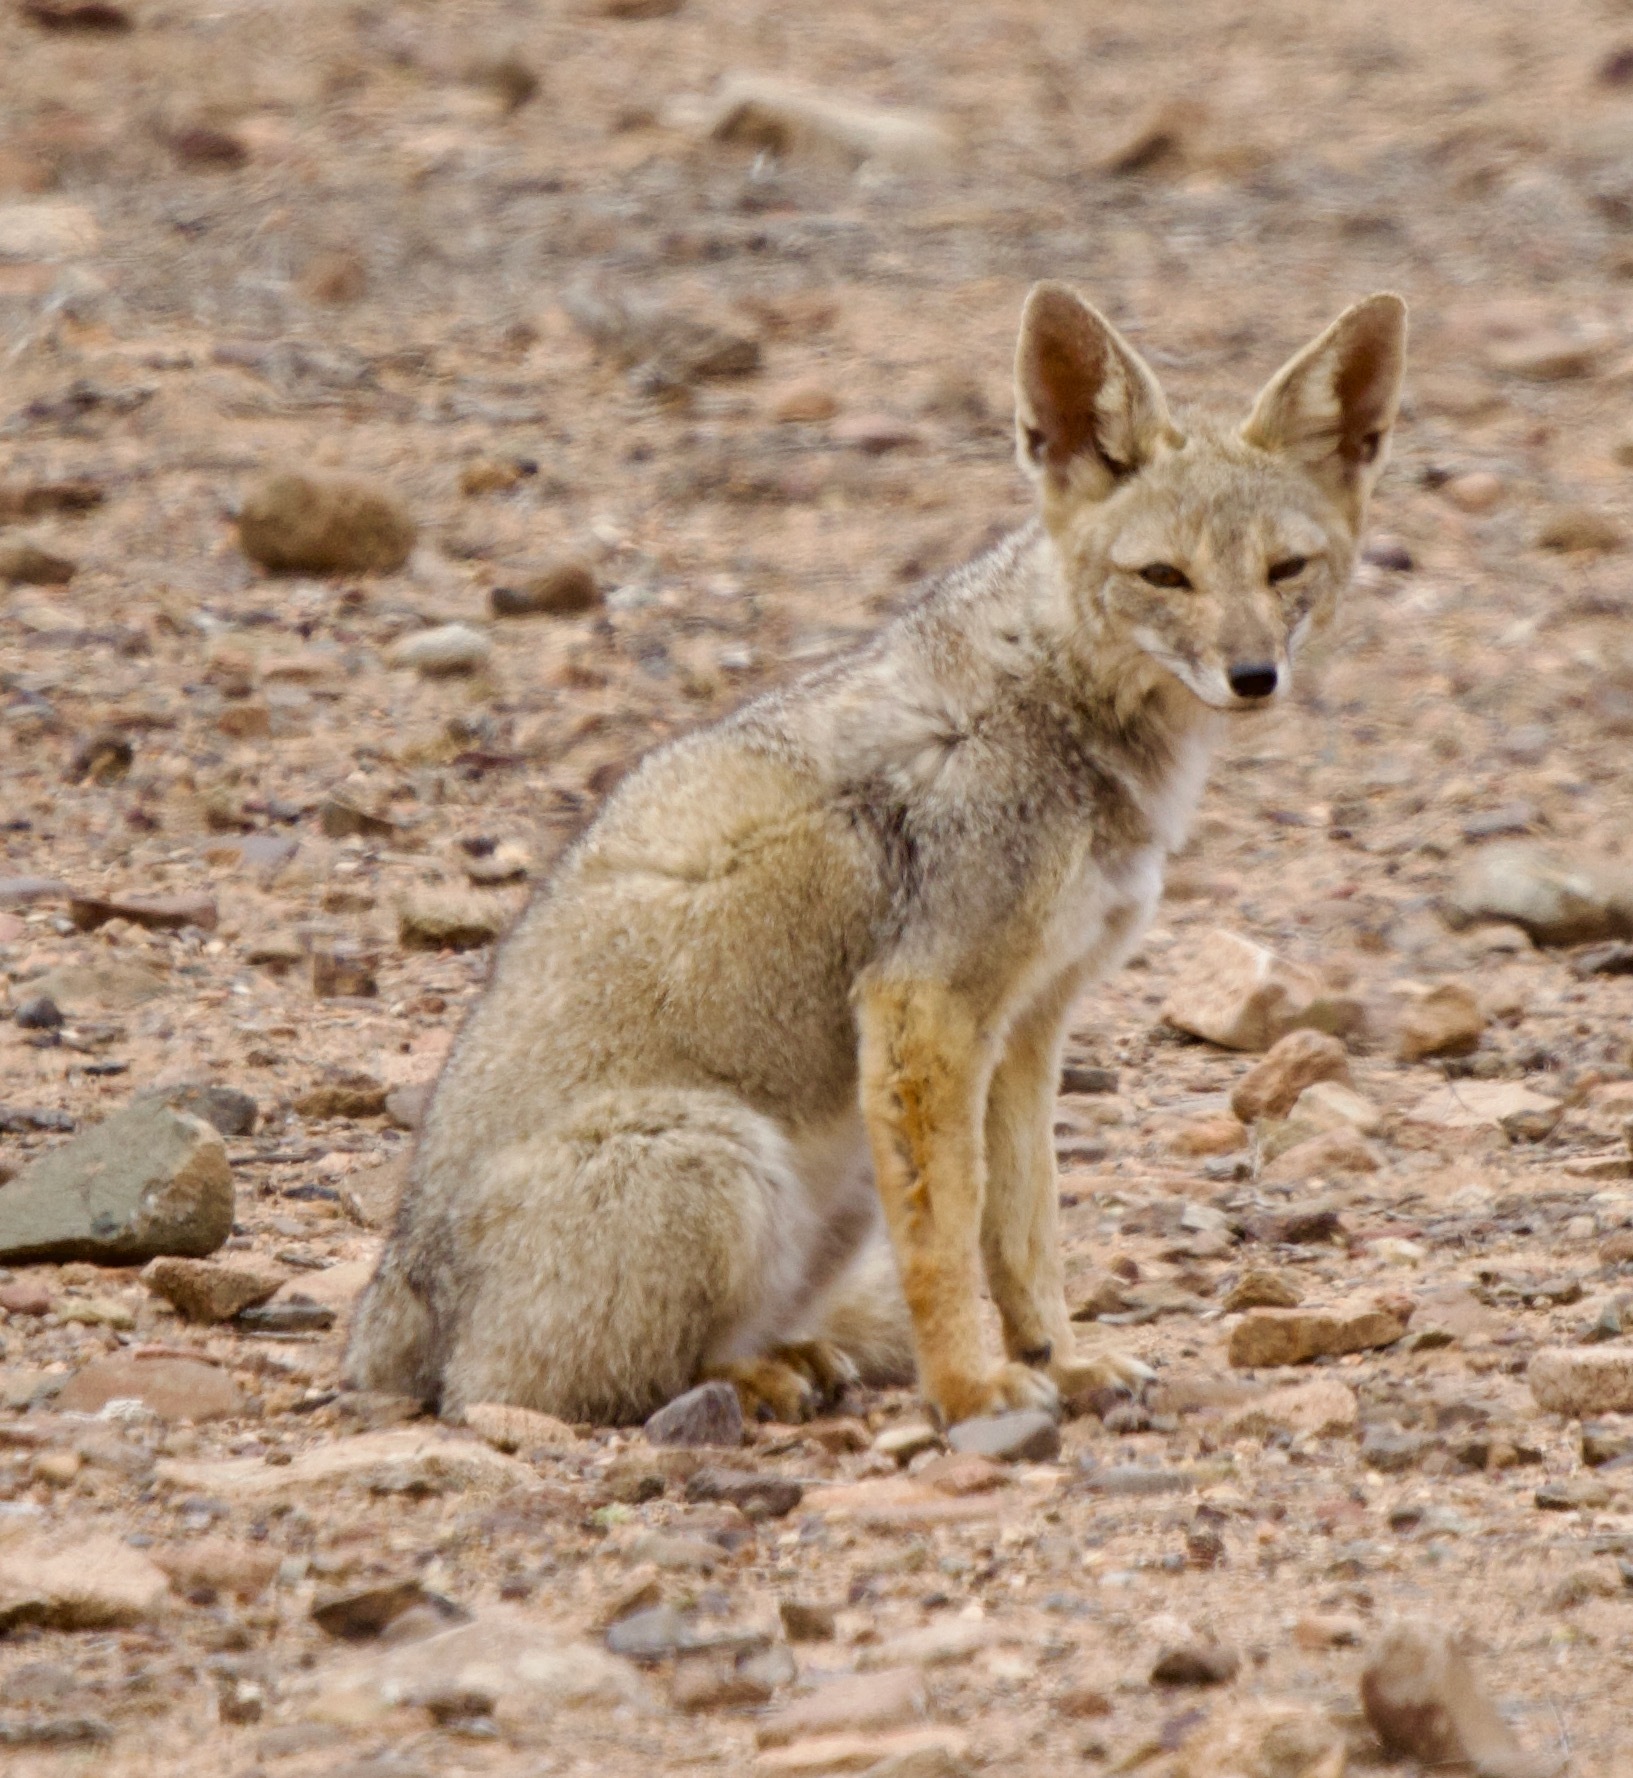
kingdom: Animalia
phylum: Chordata
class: Mammalia
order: Carnivora
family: Canidae
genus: Lycalopex
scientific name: Lycalopex gymnocercus
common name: Pampas fox
